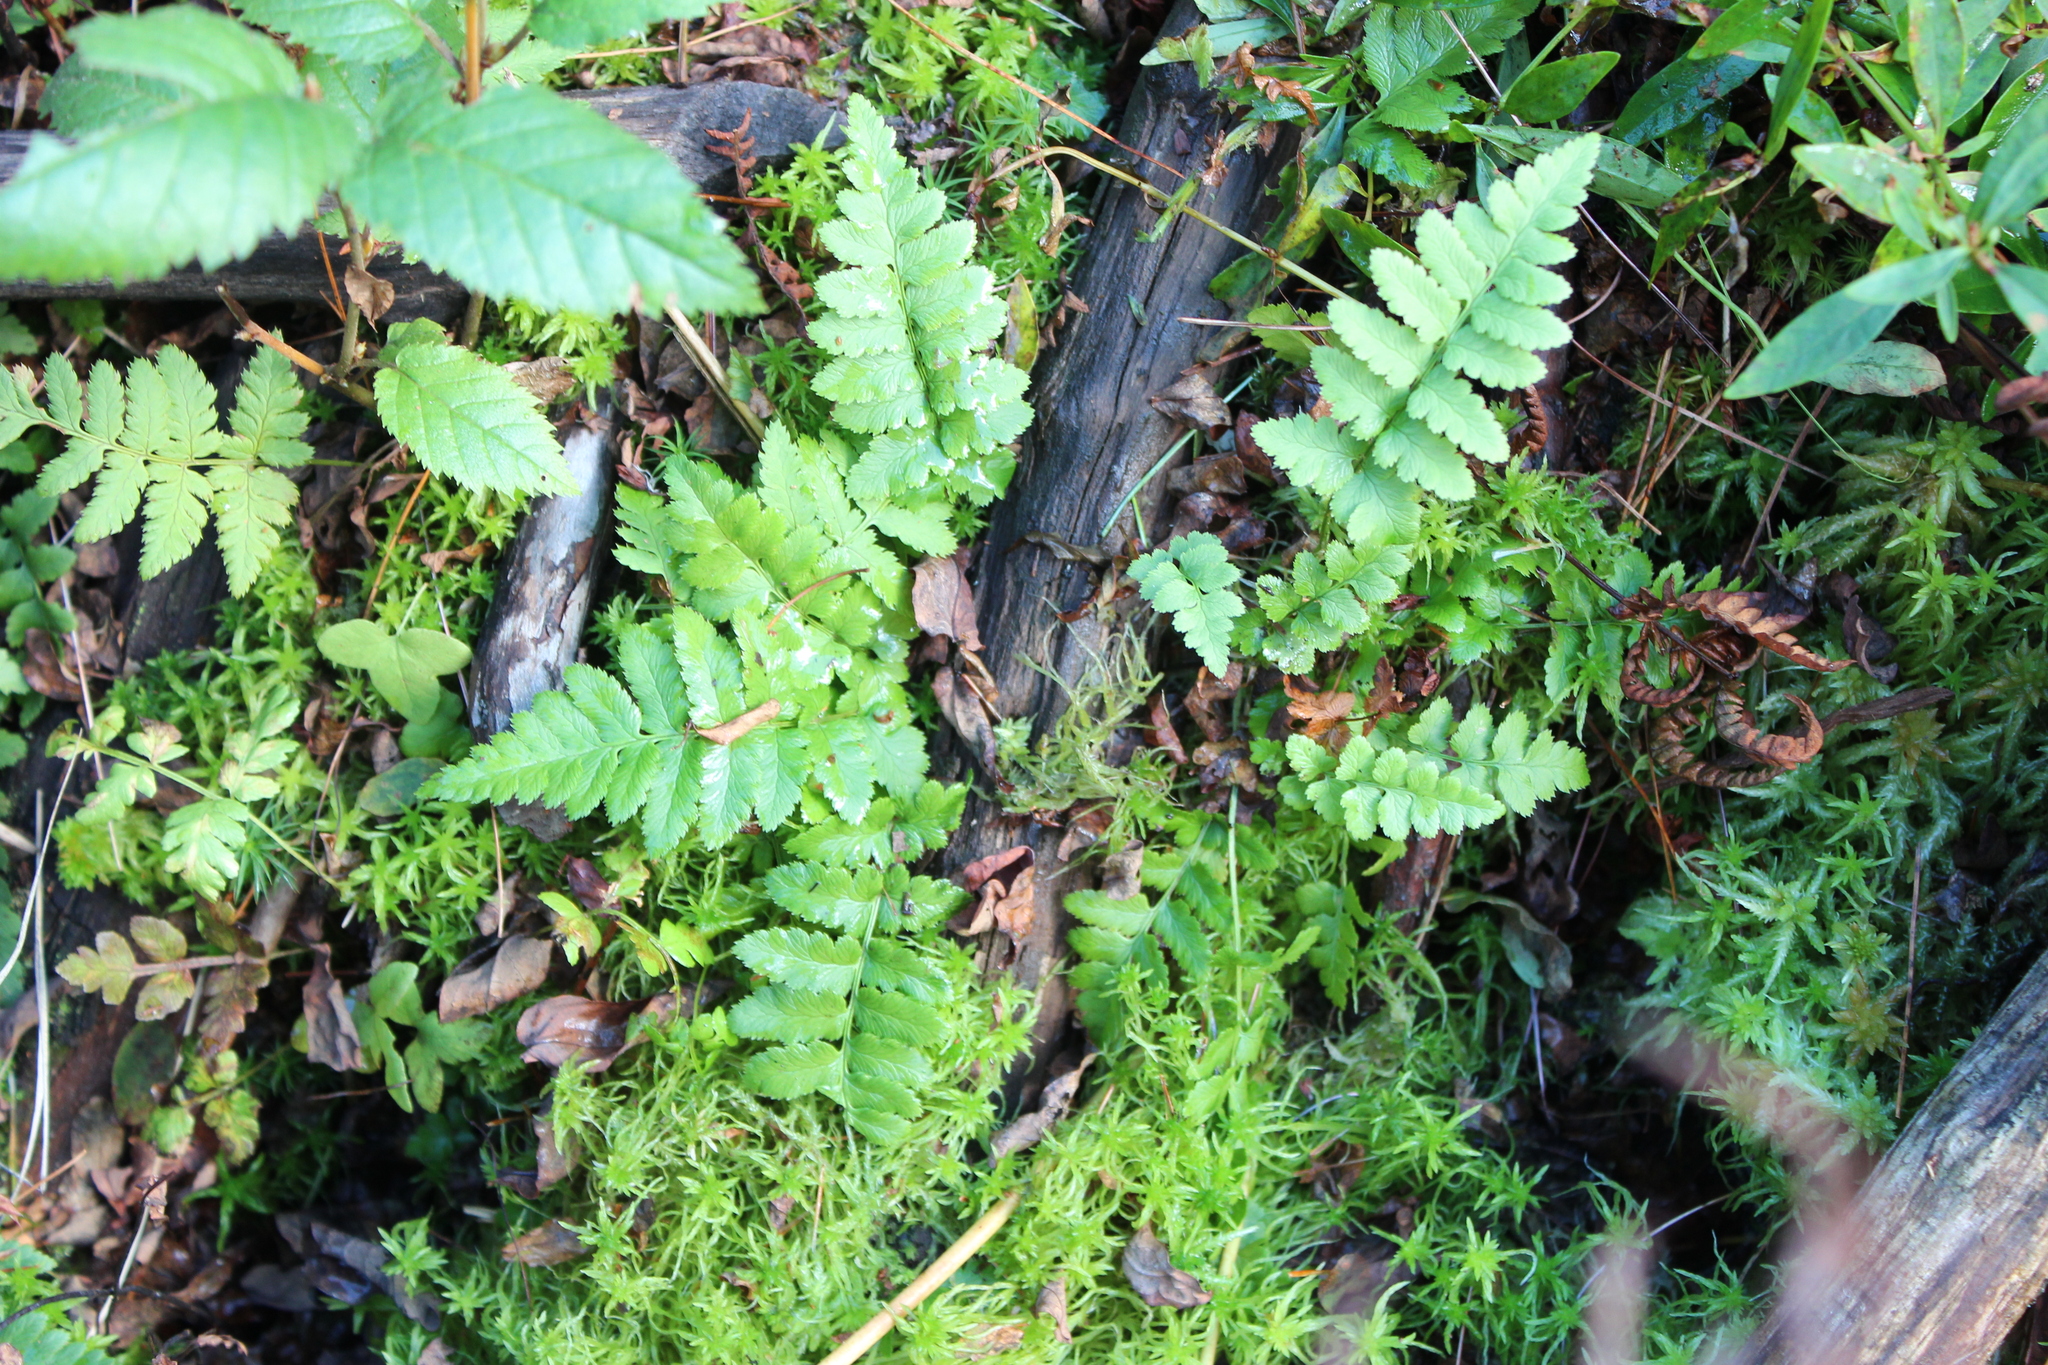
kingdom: Plantae
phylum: Tracheophyta
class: Polypodiopsida
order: Polypodiales
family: Dryopteridaceae
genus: Dryopteris
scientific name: Dryopteris cristata
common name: Crested wood fern
